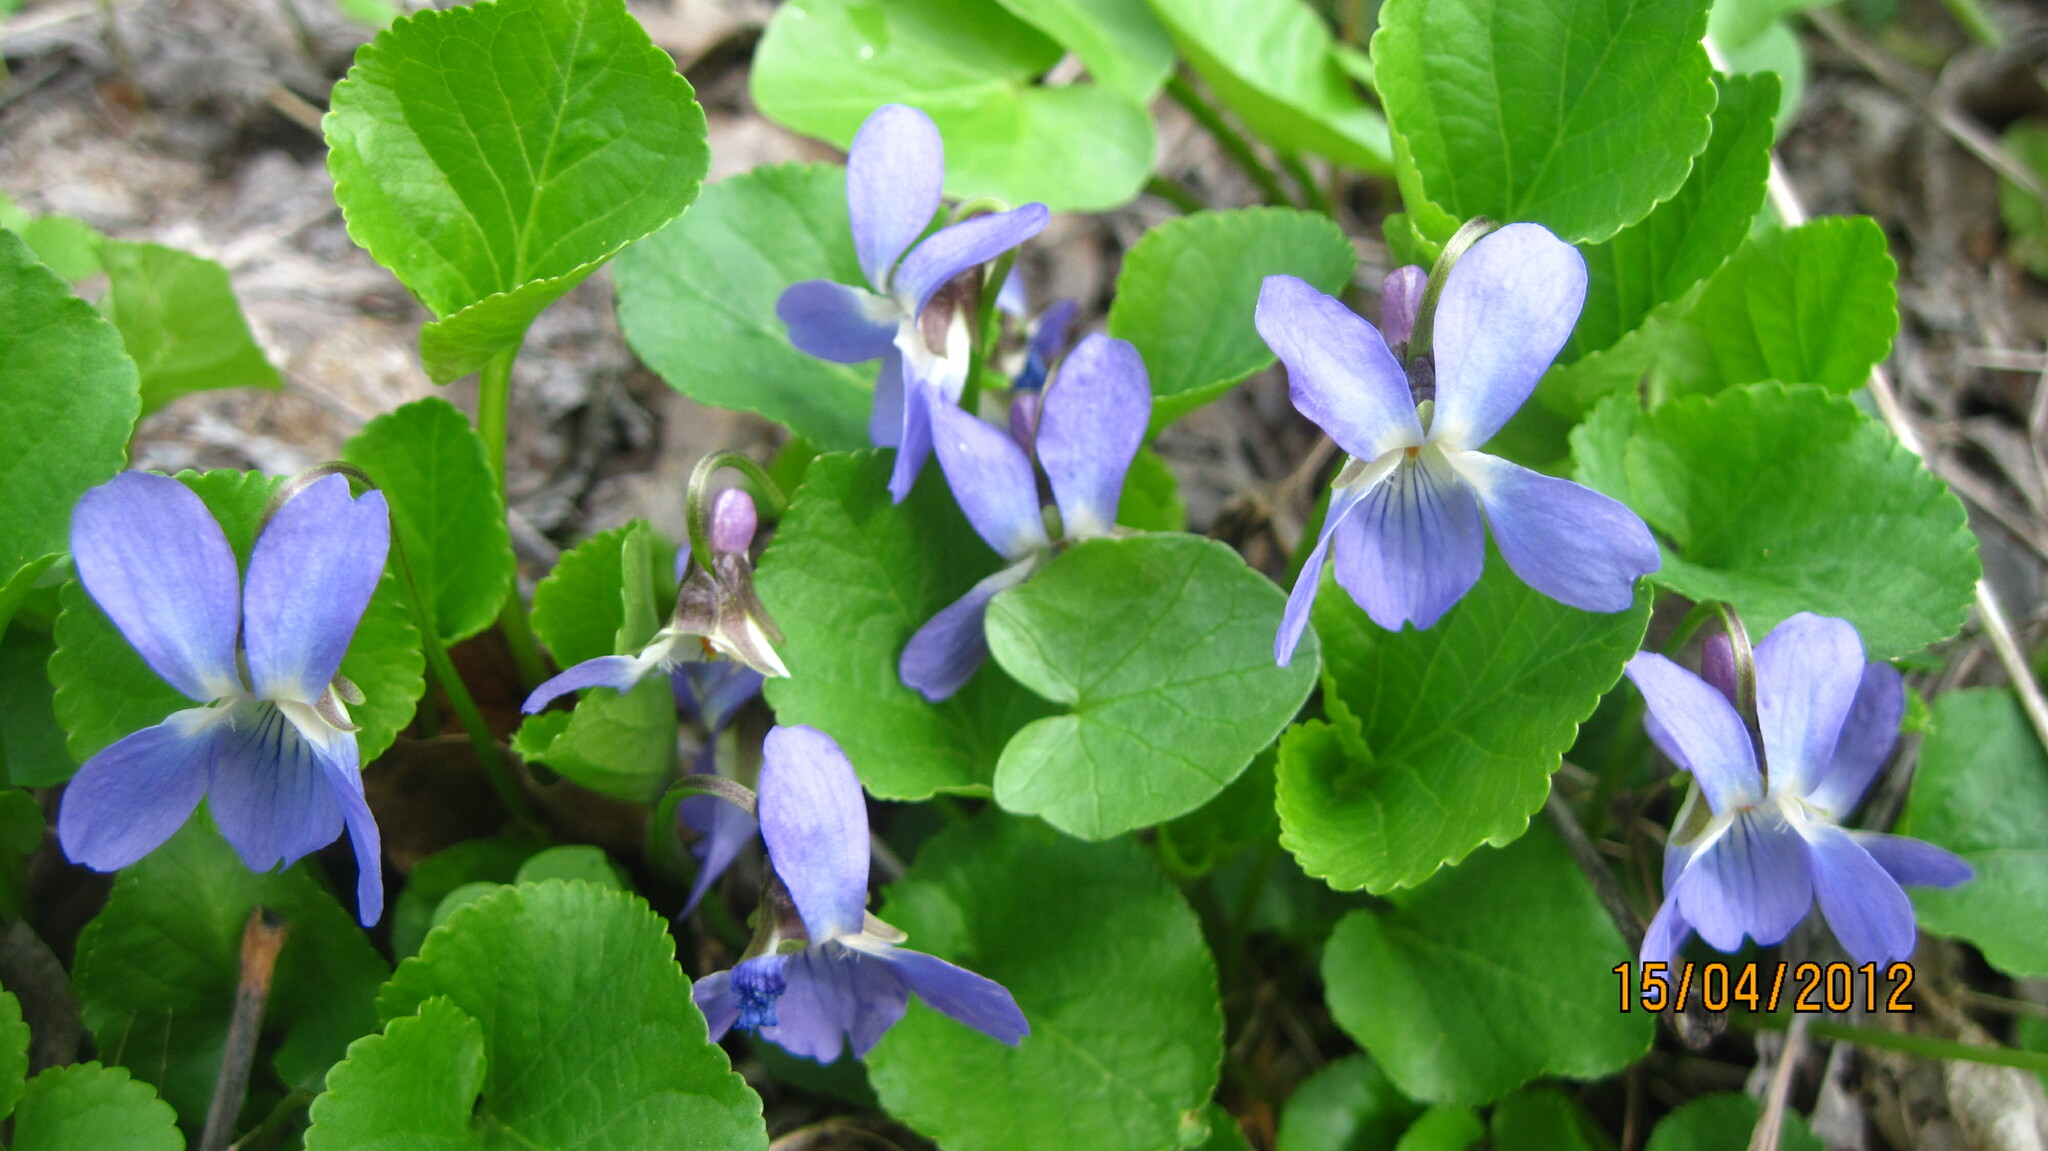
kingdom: Plantae
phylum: Tracheophyta
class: Magnoliopsida
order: Malpighiales
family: Violaceae
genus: Viola
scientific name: Viola suavis
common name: Russian violet
